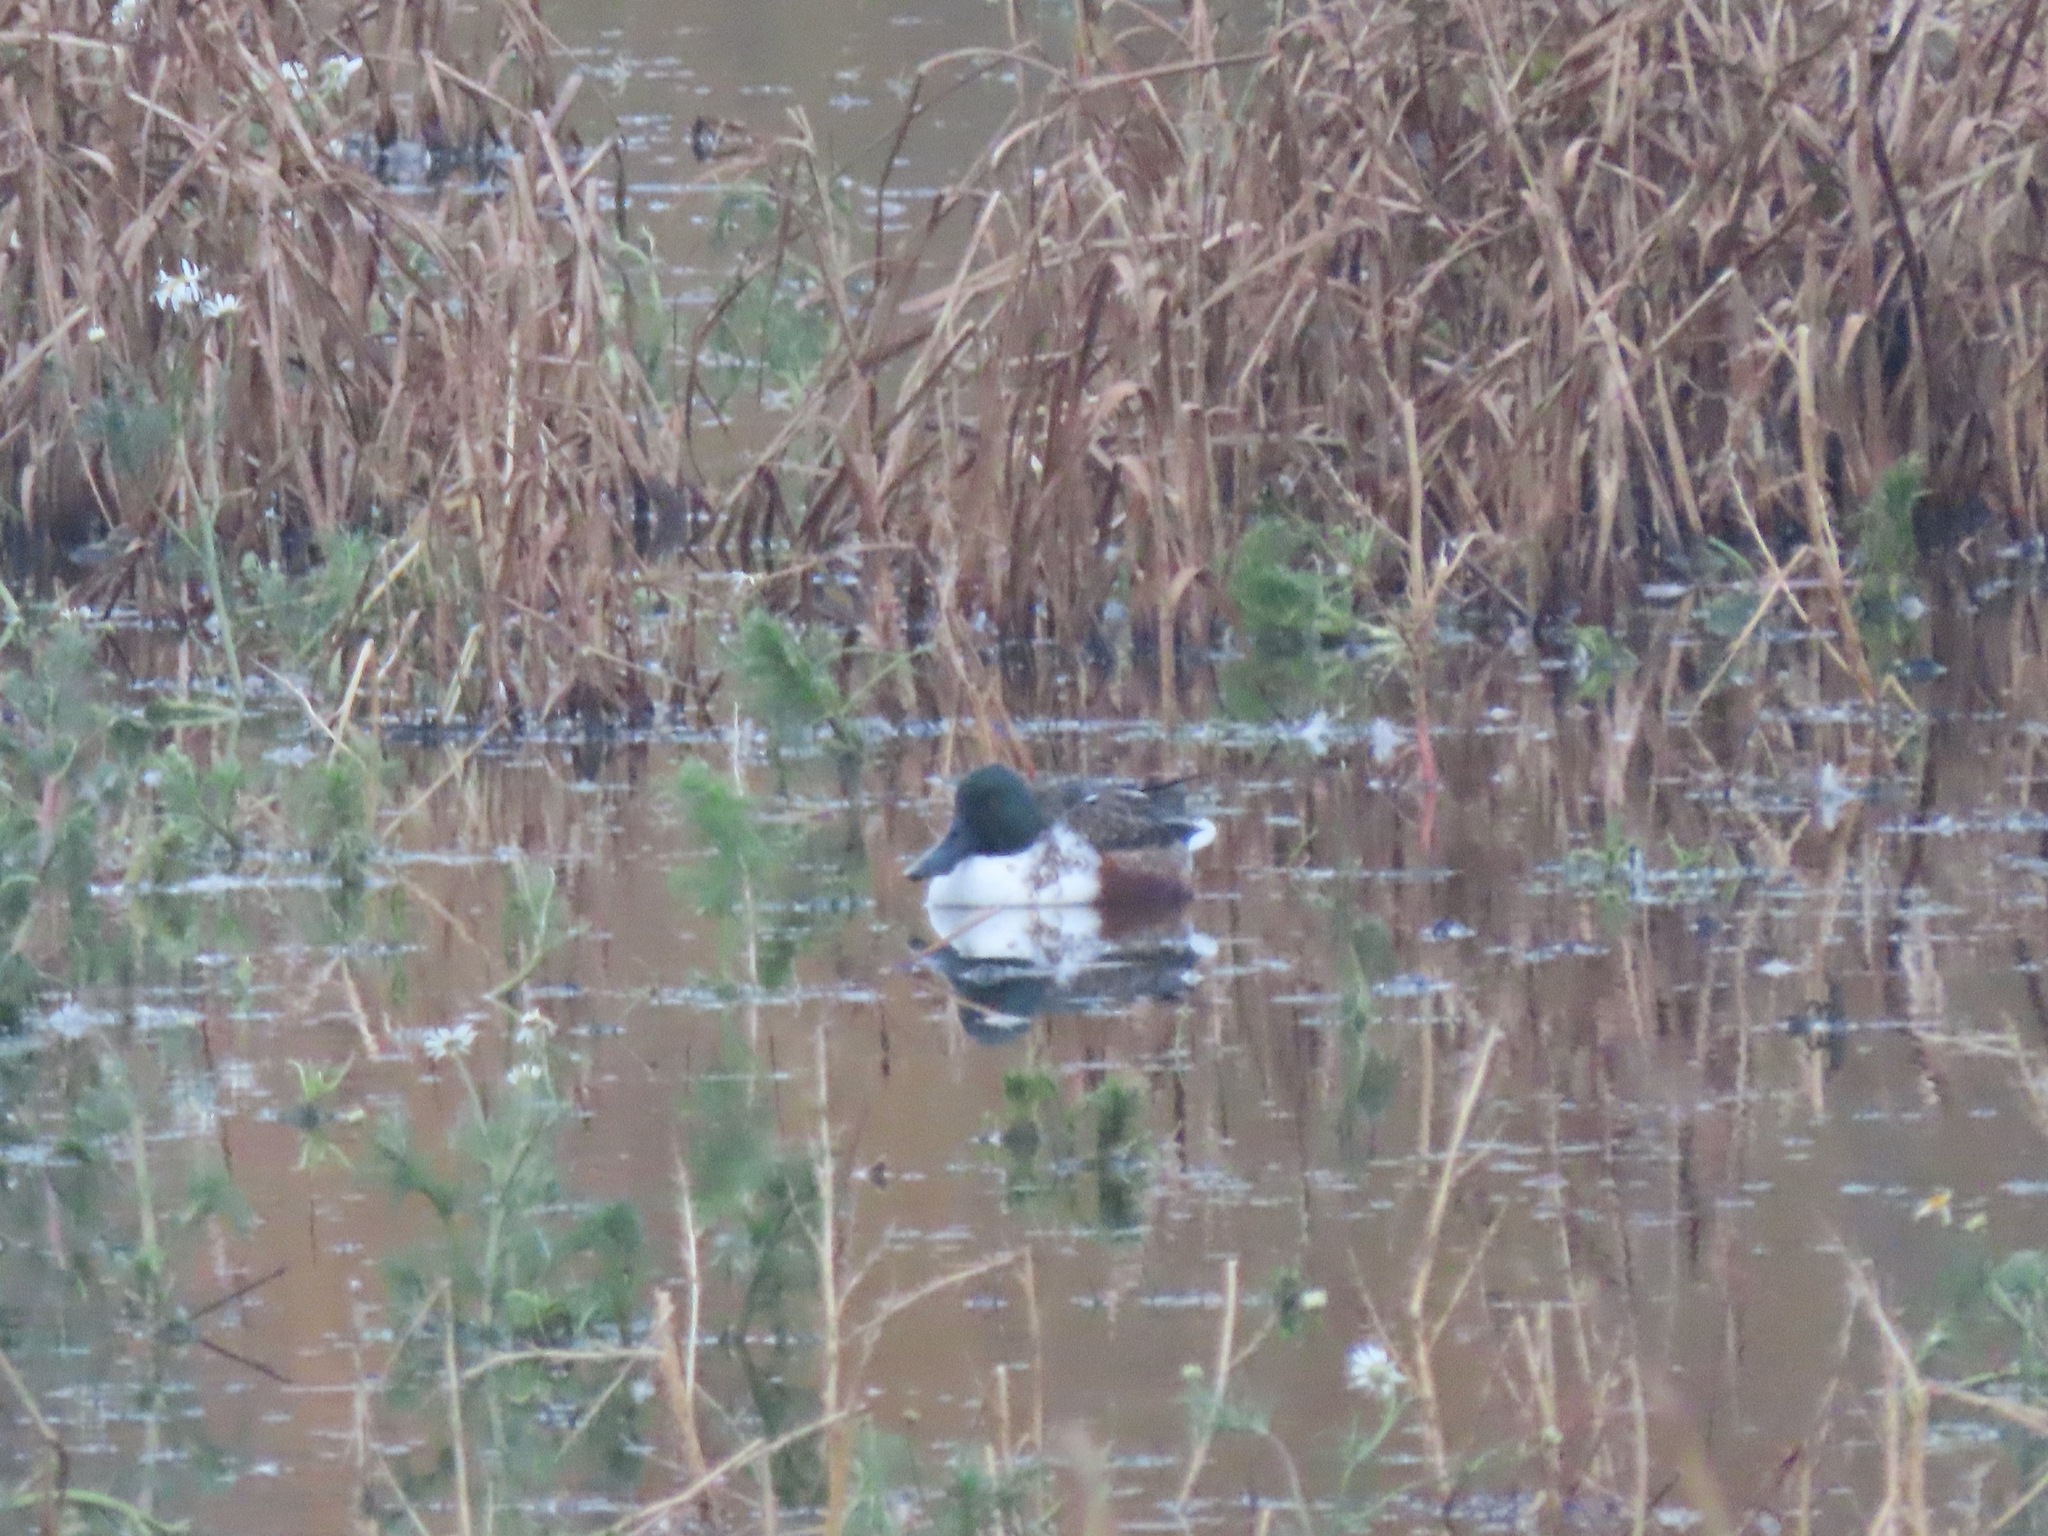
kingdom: Animalia
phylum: Chordata
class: Aves
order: Anseriformes
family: Anatidae
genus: Spatula
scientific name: Spatula clypeata
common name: Northern shoveler
